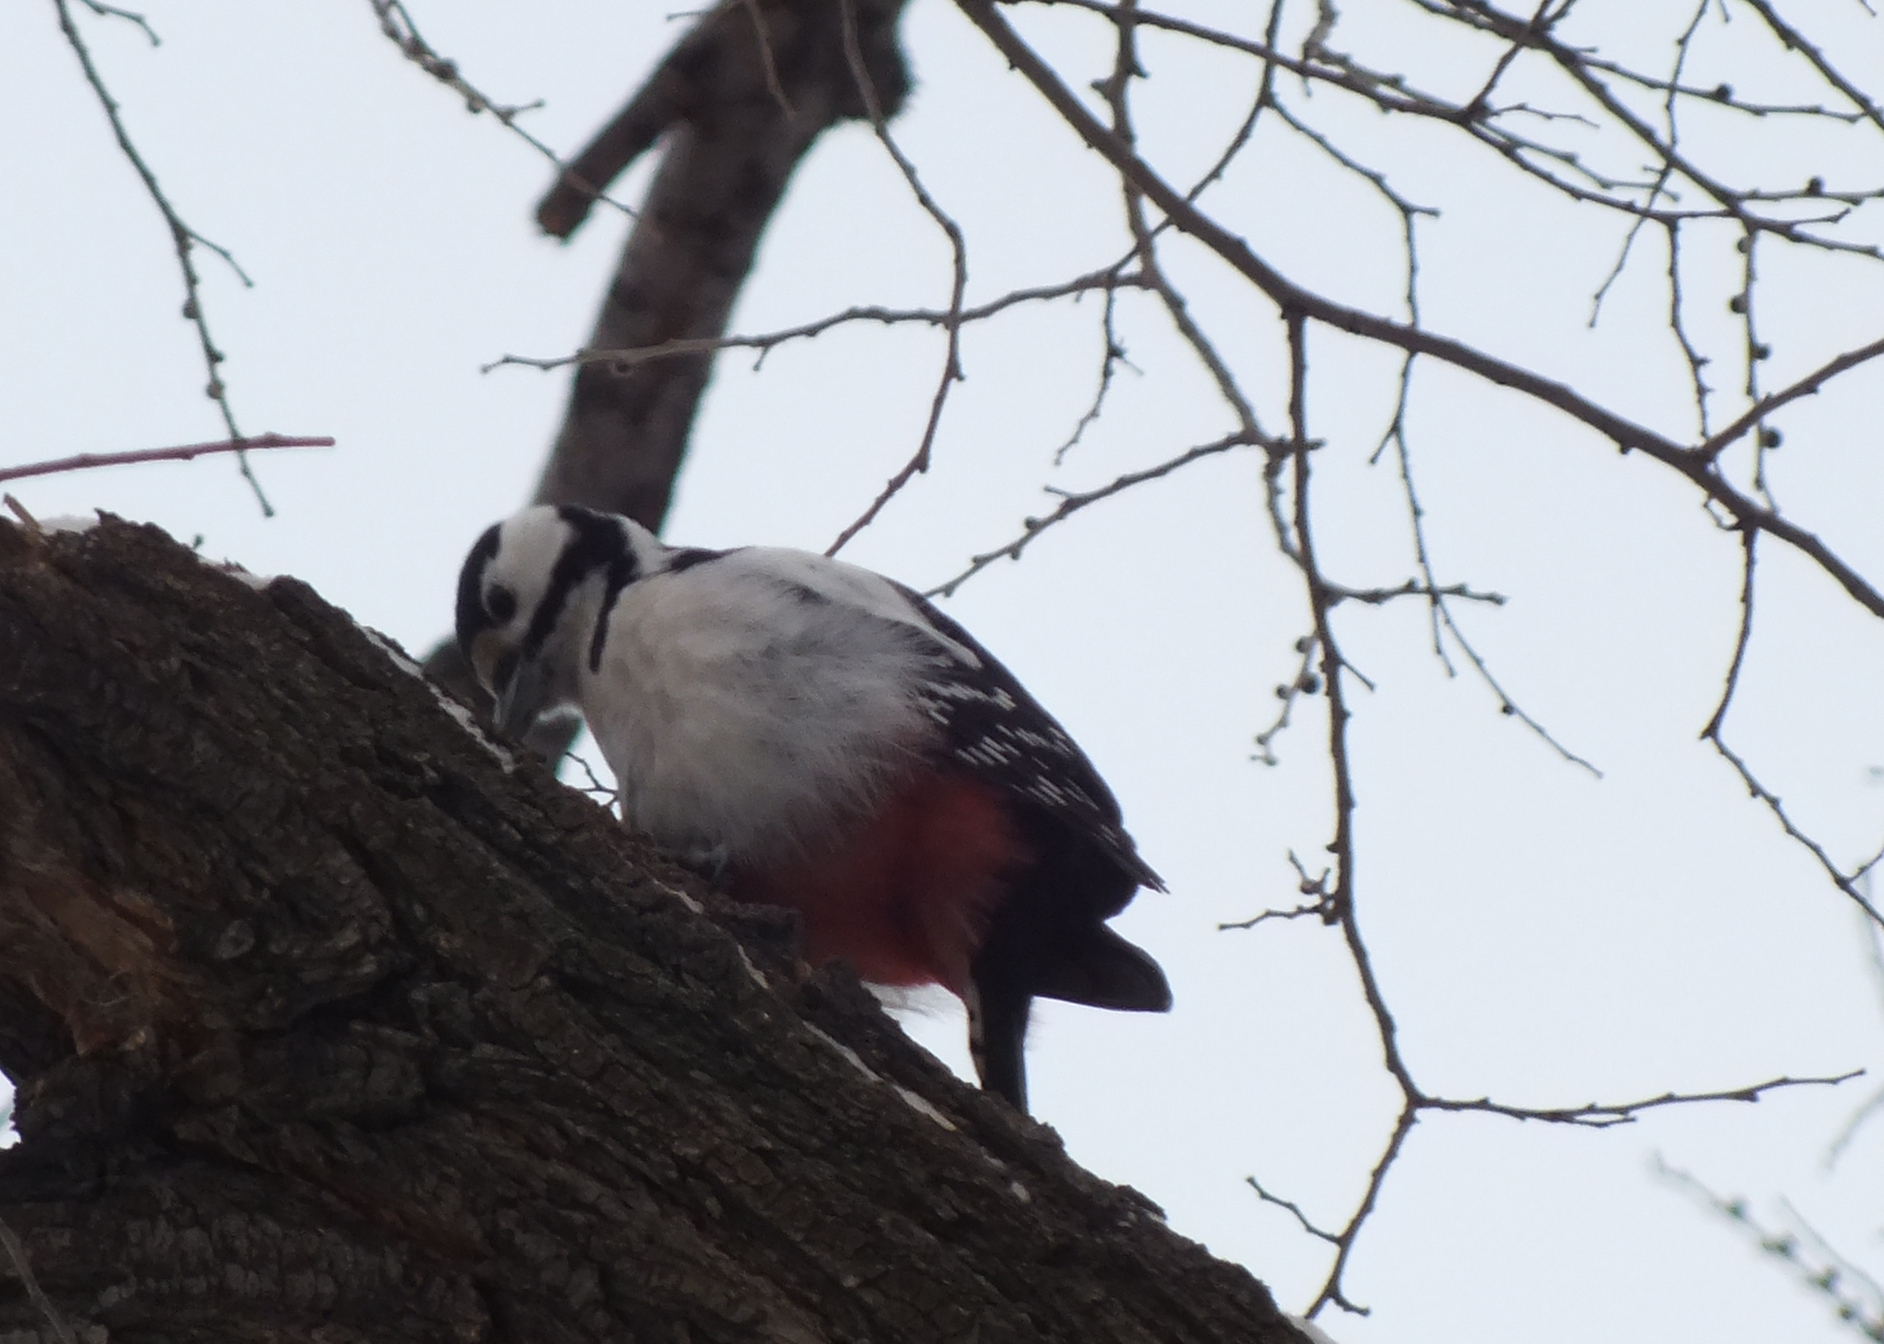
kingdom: Animalia
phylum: Chordata
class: Aves
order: Piciformes
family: Picidae
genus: Dendrocopos
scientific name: Dendrocopos major
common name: Great spotted woodpecker
